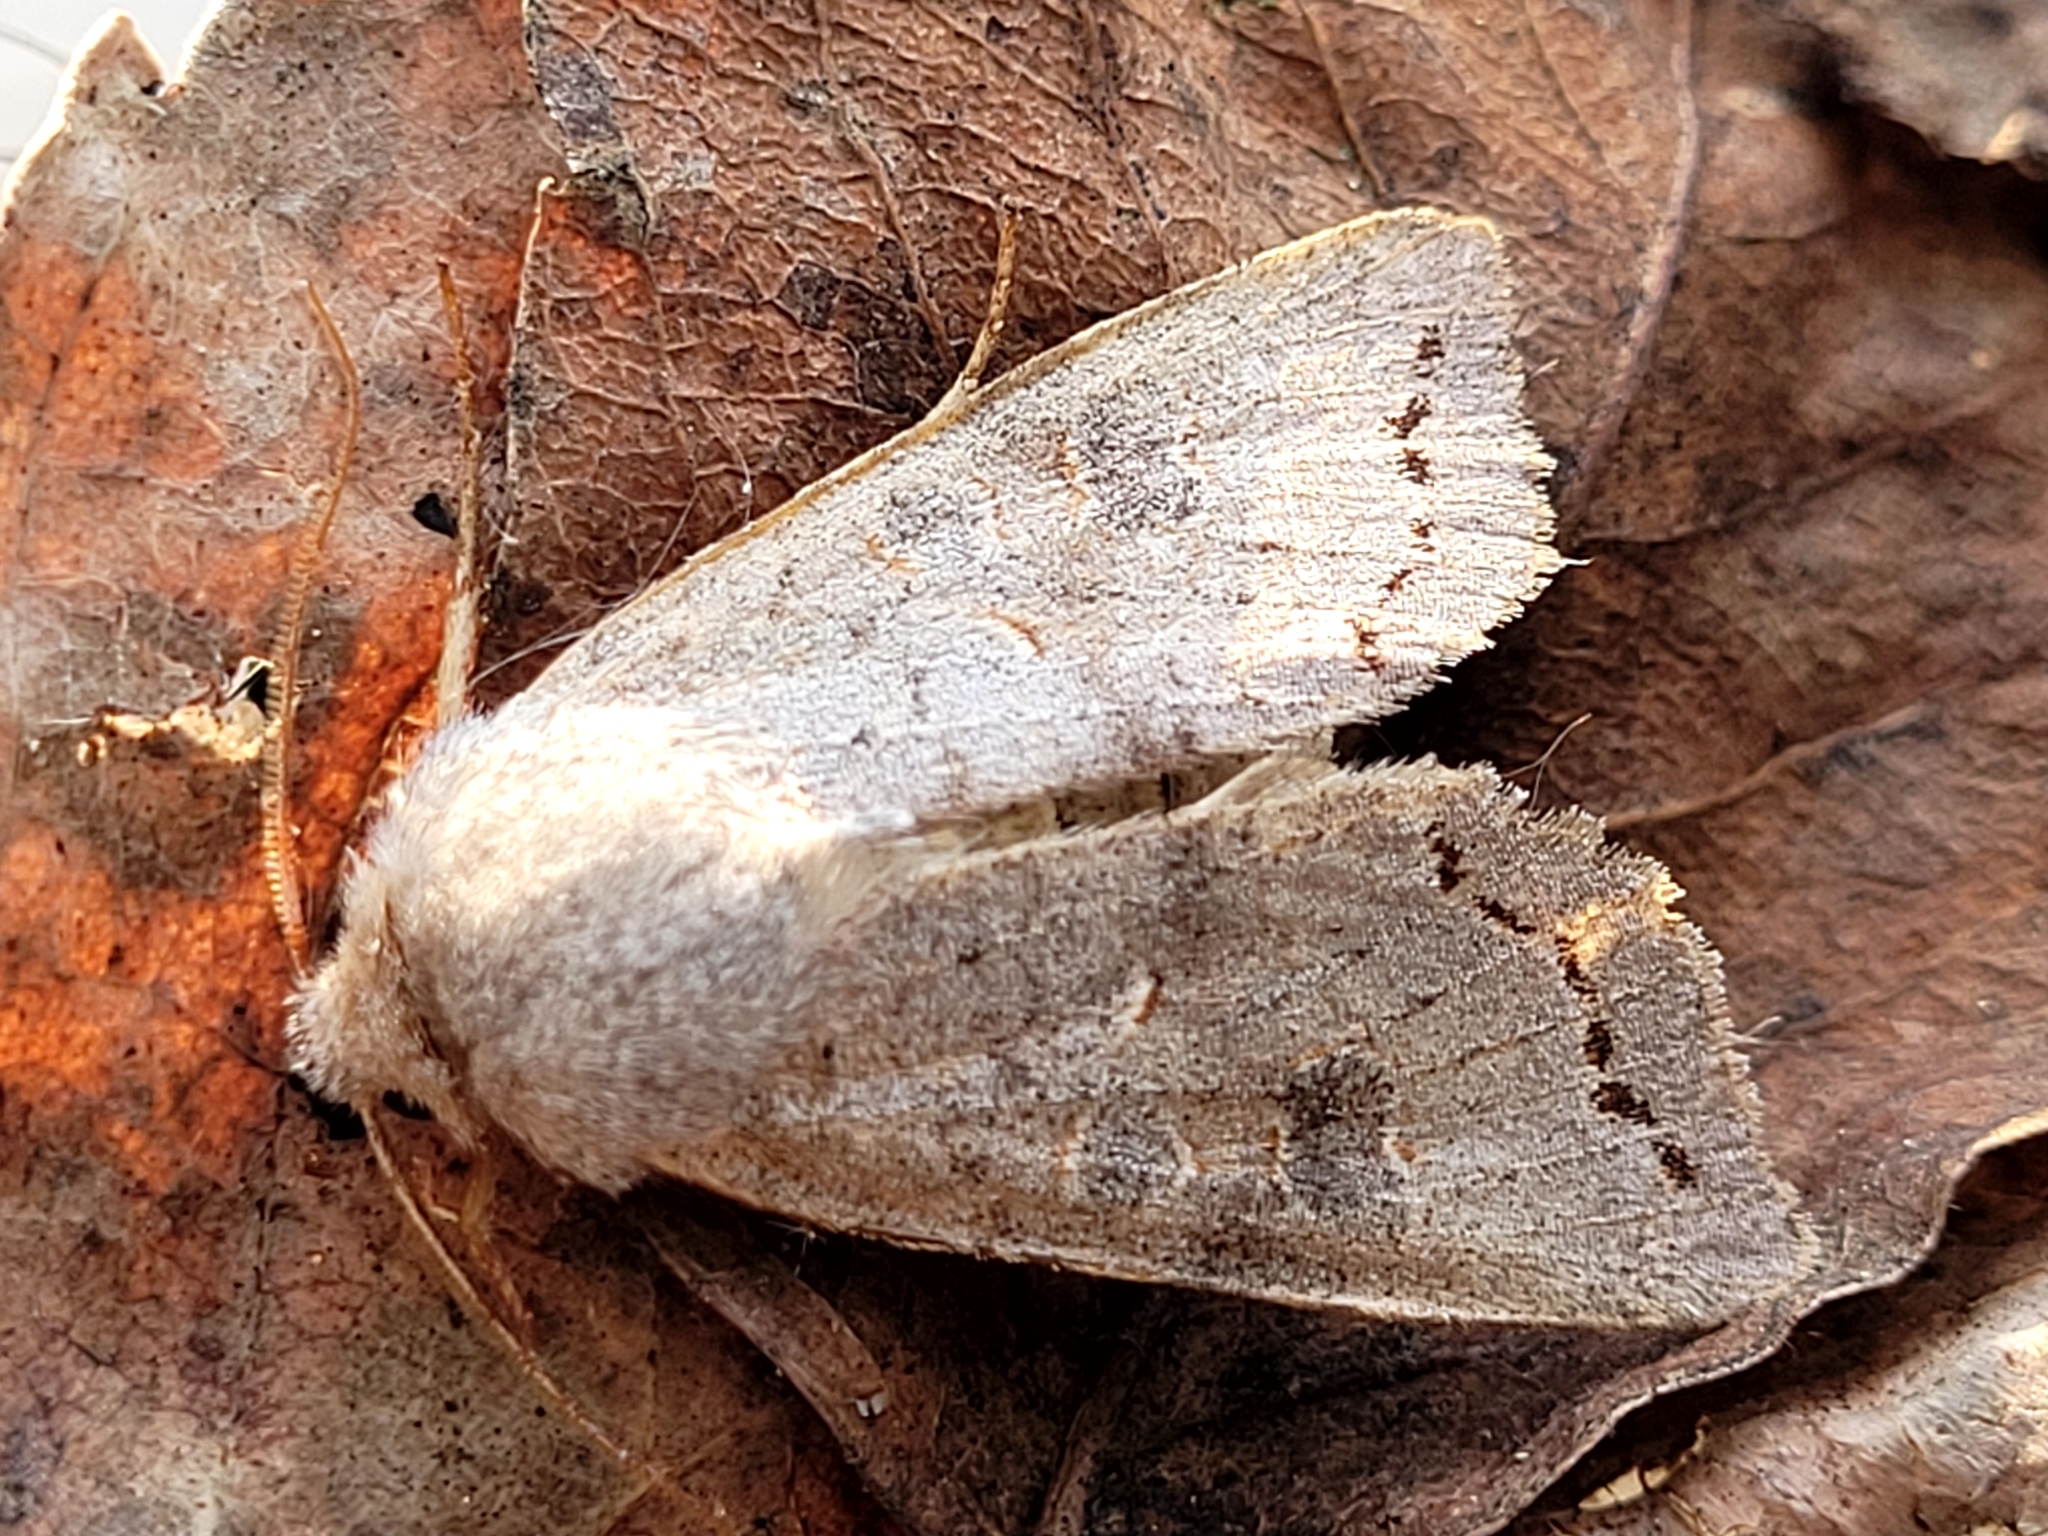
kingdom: Animalia
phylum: Arthropoda
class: Insecta
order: Lepidoptera
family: Noctuidae
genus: Orthosia
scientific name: Orthosia revicta
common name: Rusty whitesided caterpillar
